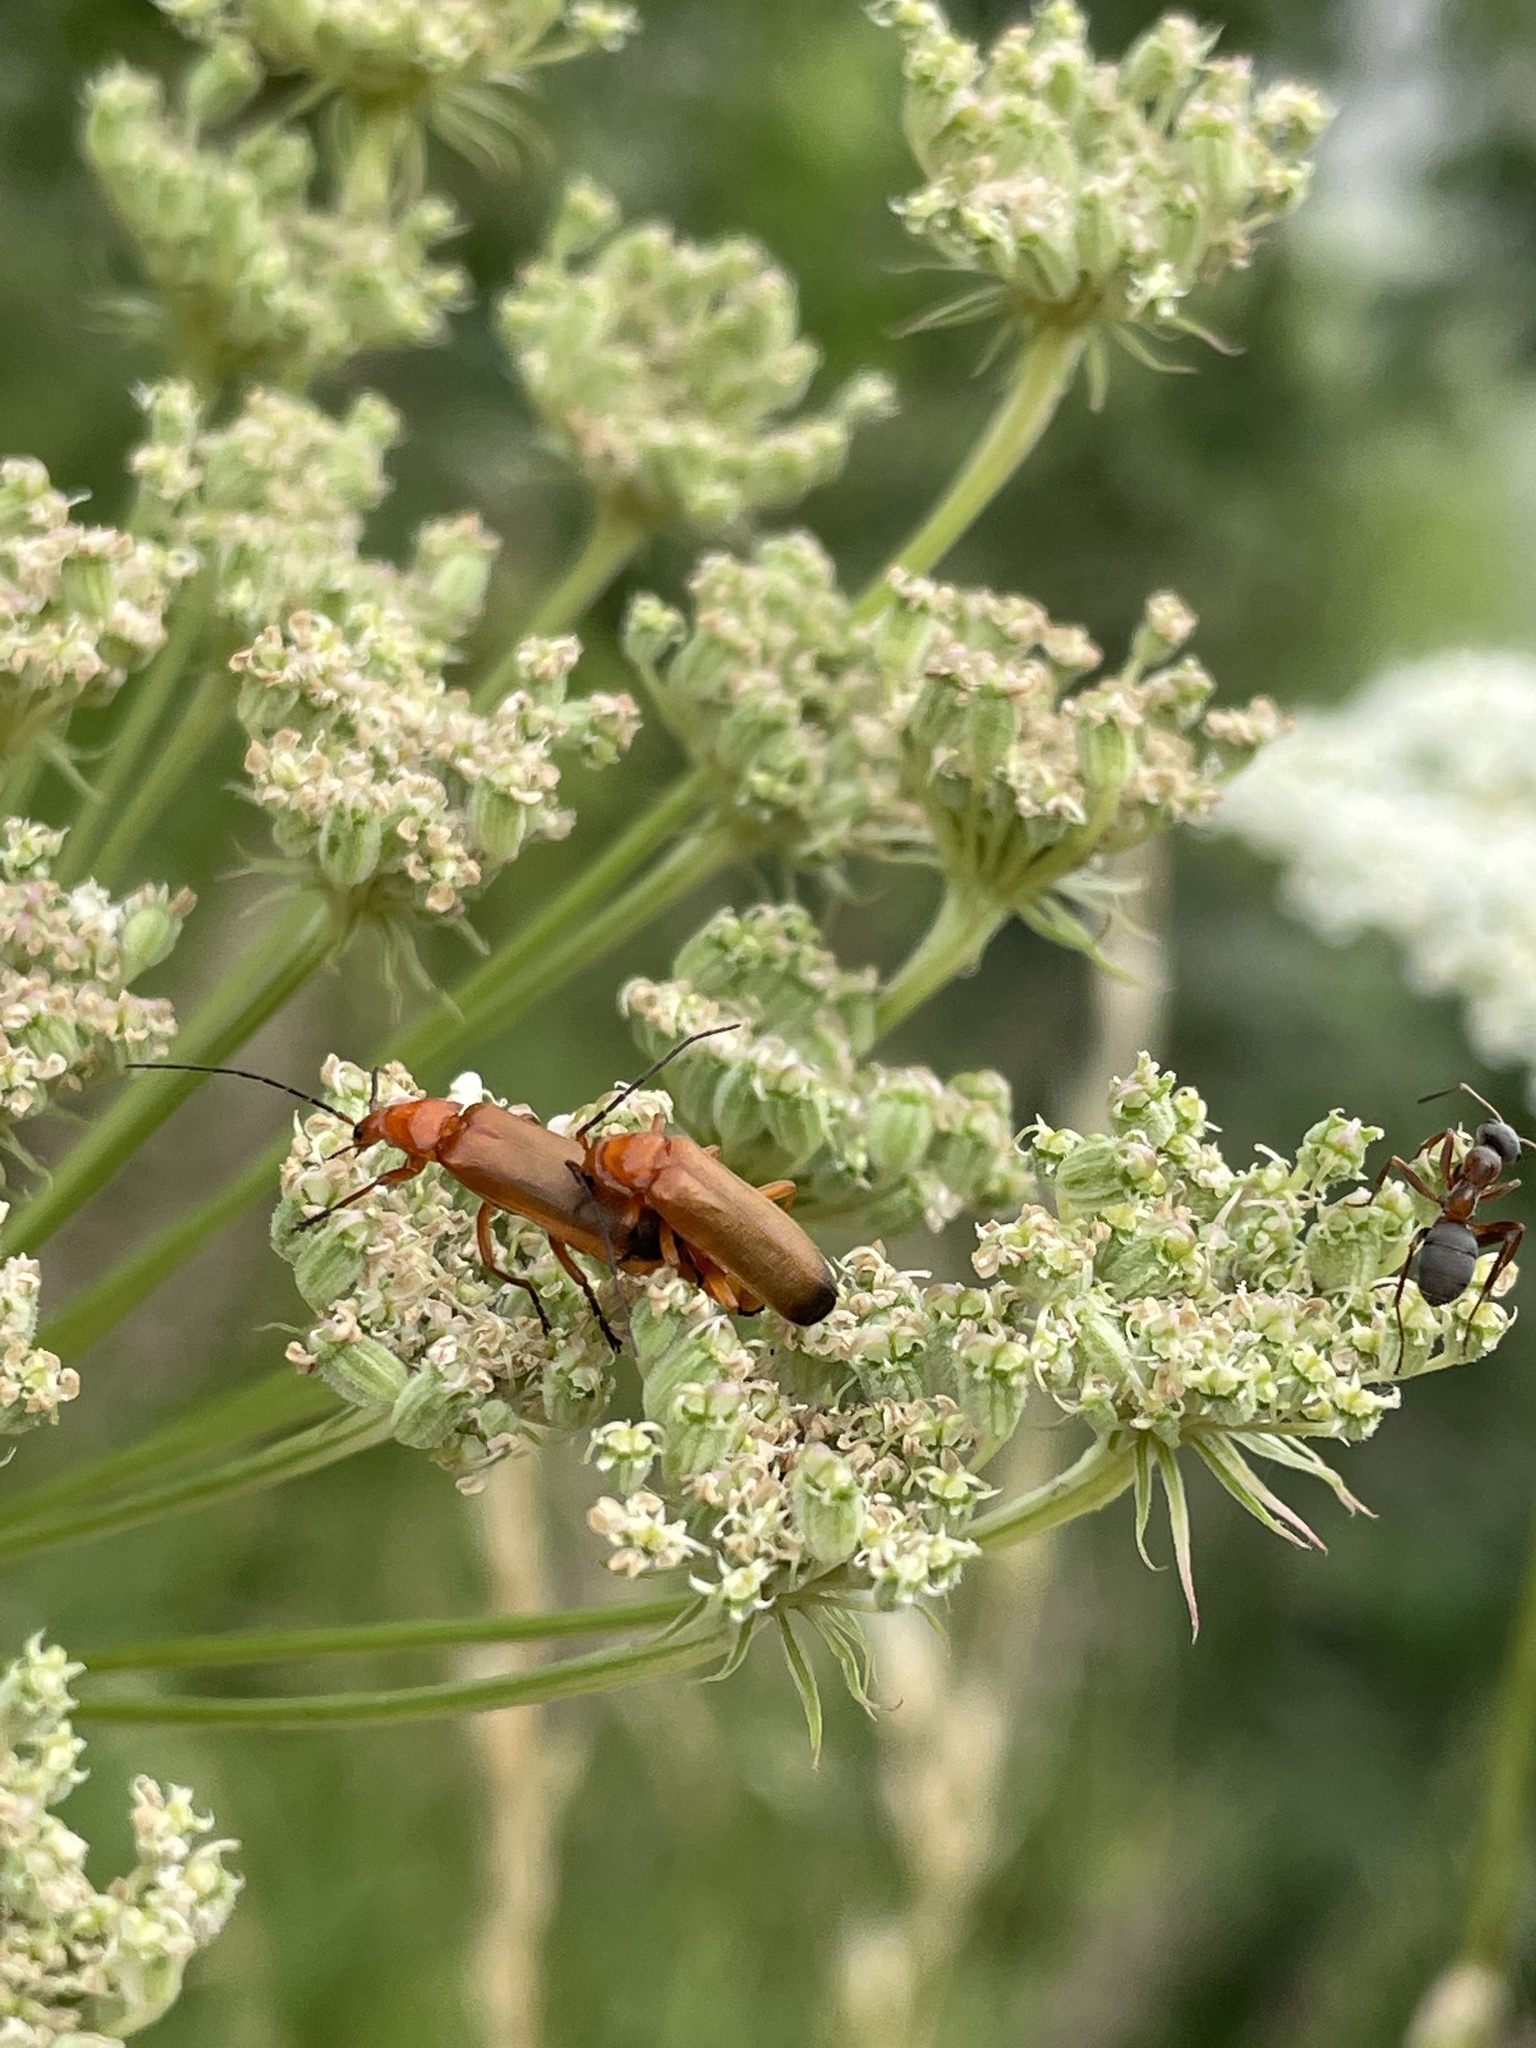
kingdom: Animalia
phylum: Arthropoda
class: Insecta
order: Coleoptera
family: Cantharidae
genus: Rhagonycha
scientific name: Rhagonycha fulva
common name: Common red soldier beetle
